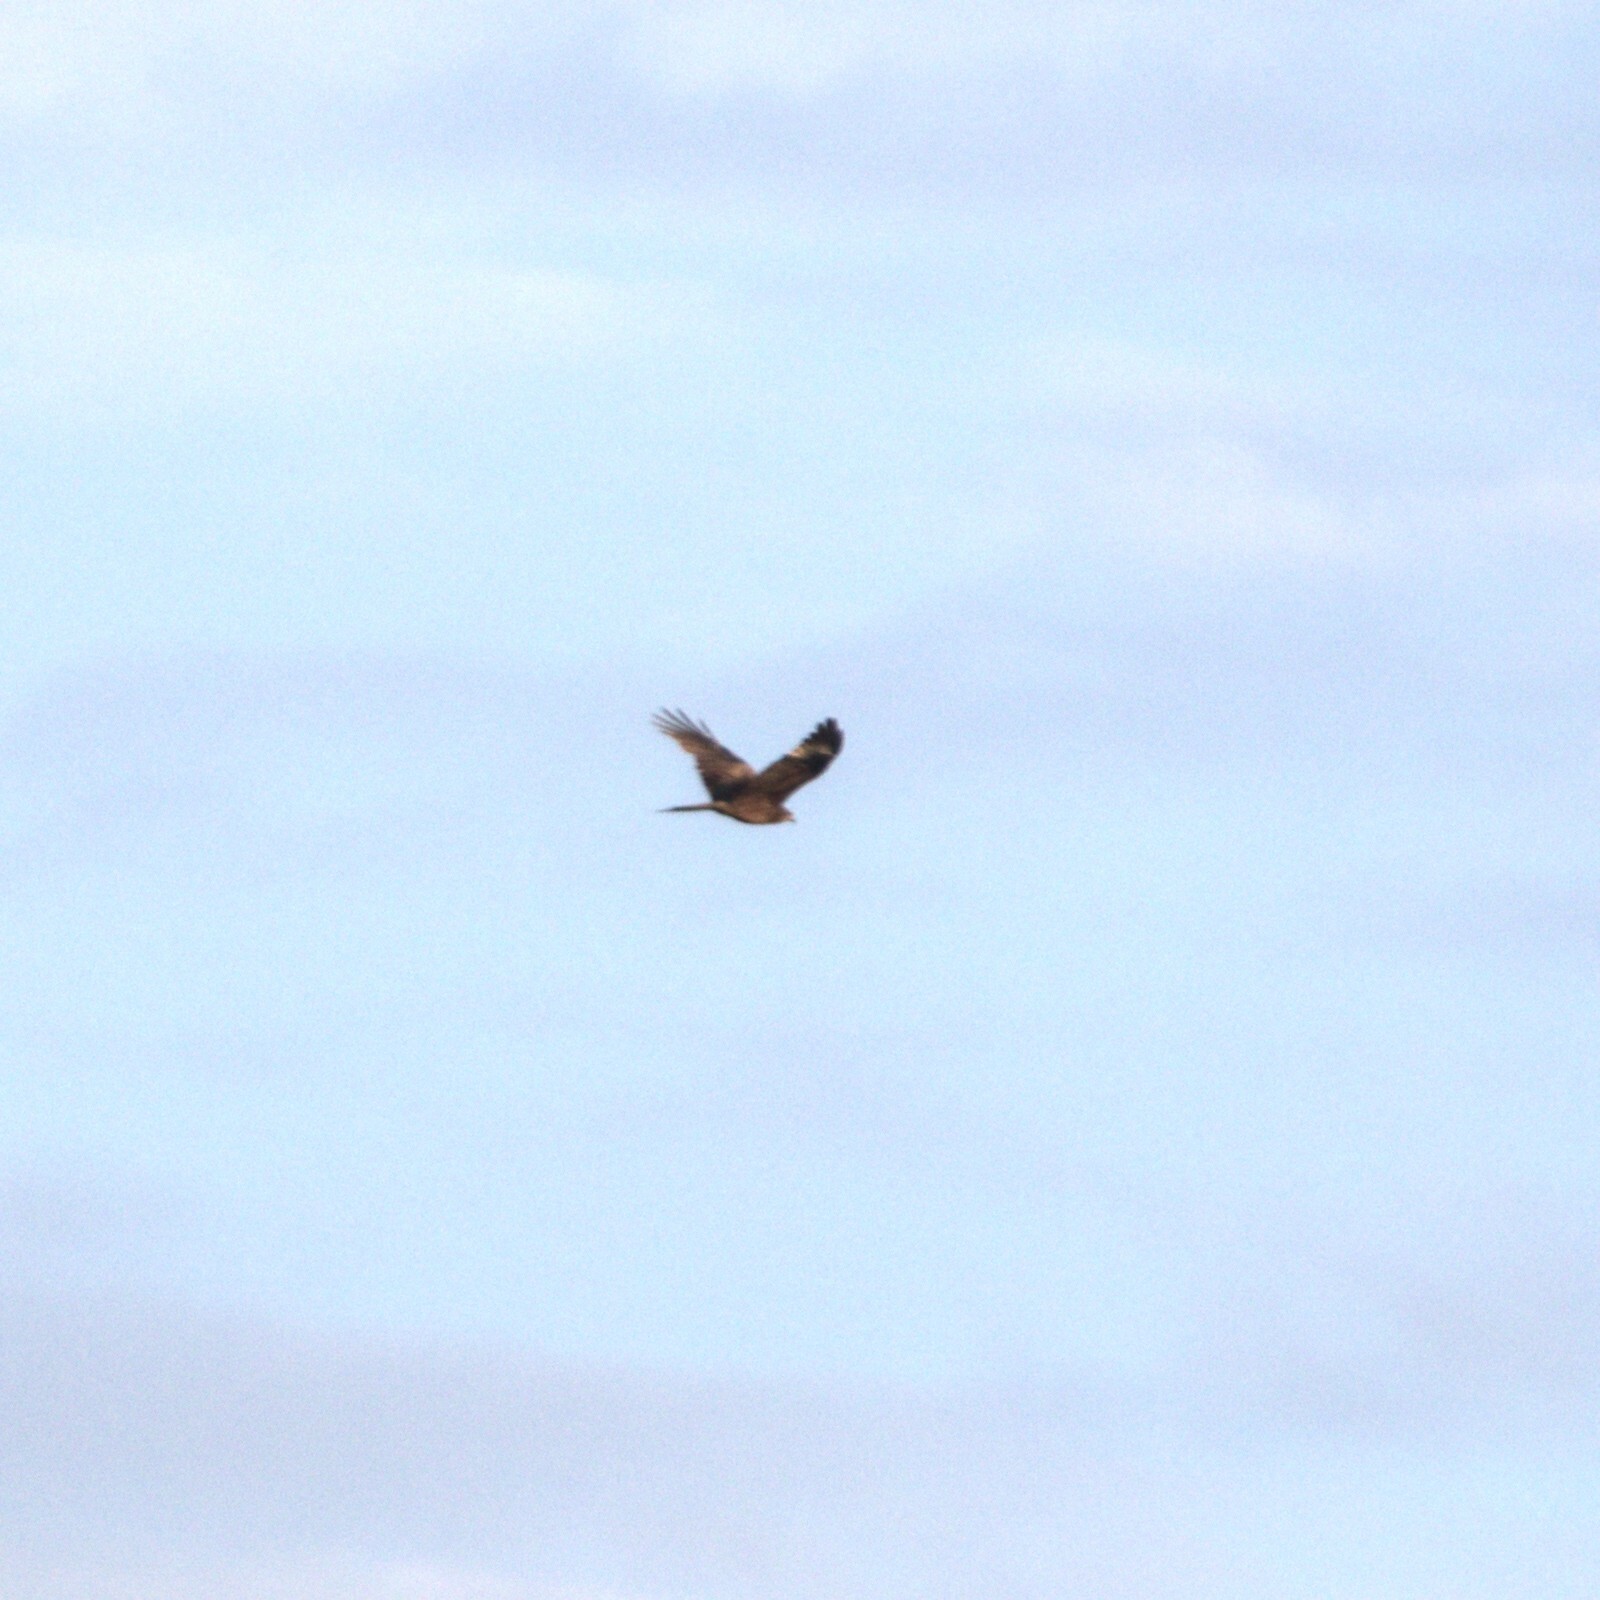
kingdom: Animalia
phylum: Chordata
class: Aves
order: Accipitriformes
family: Accipitridae
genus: Milvus
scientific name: Milvus migrans
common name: Black kite
